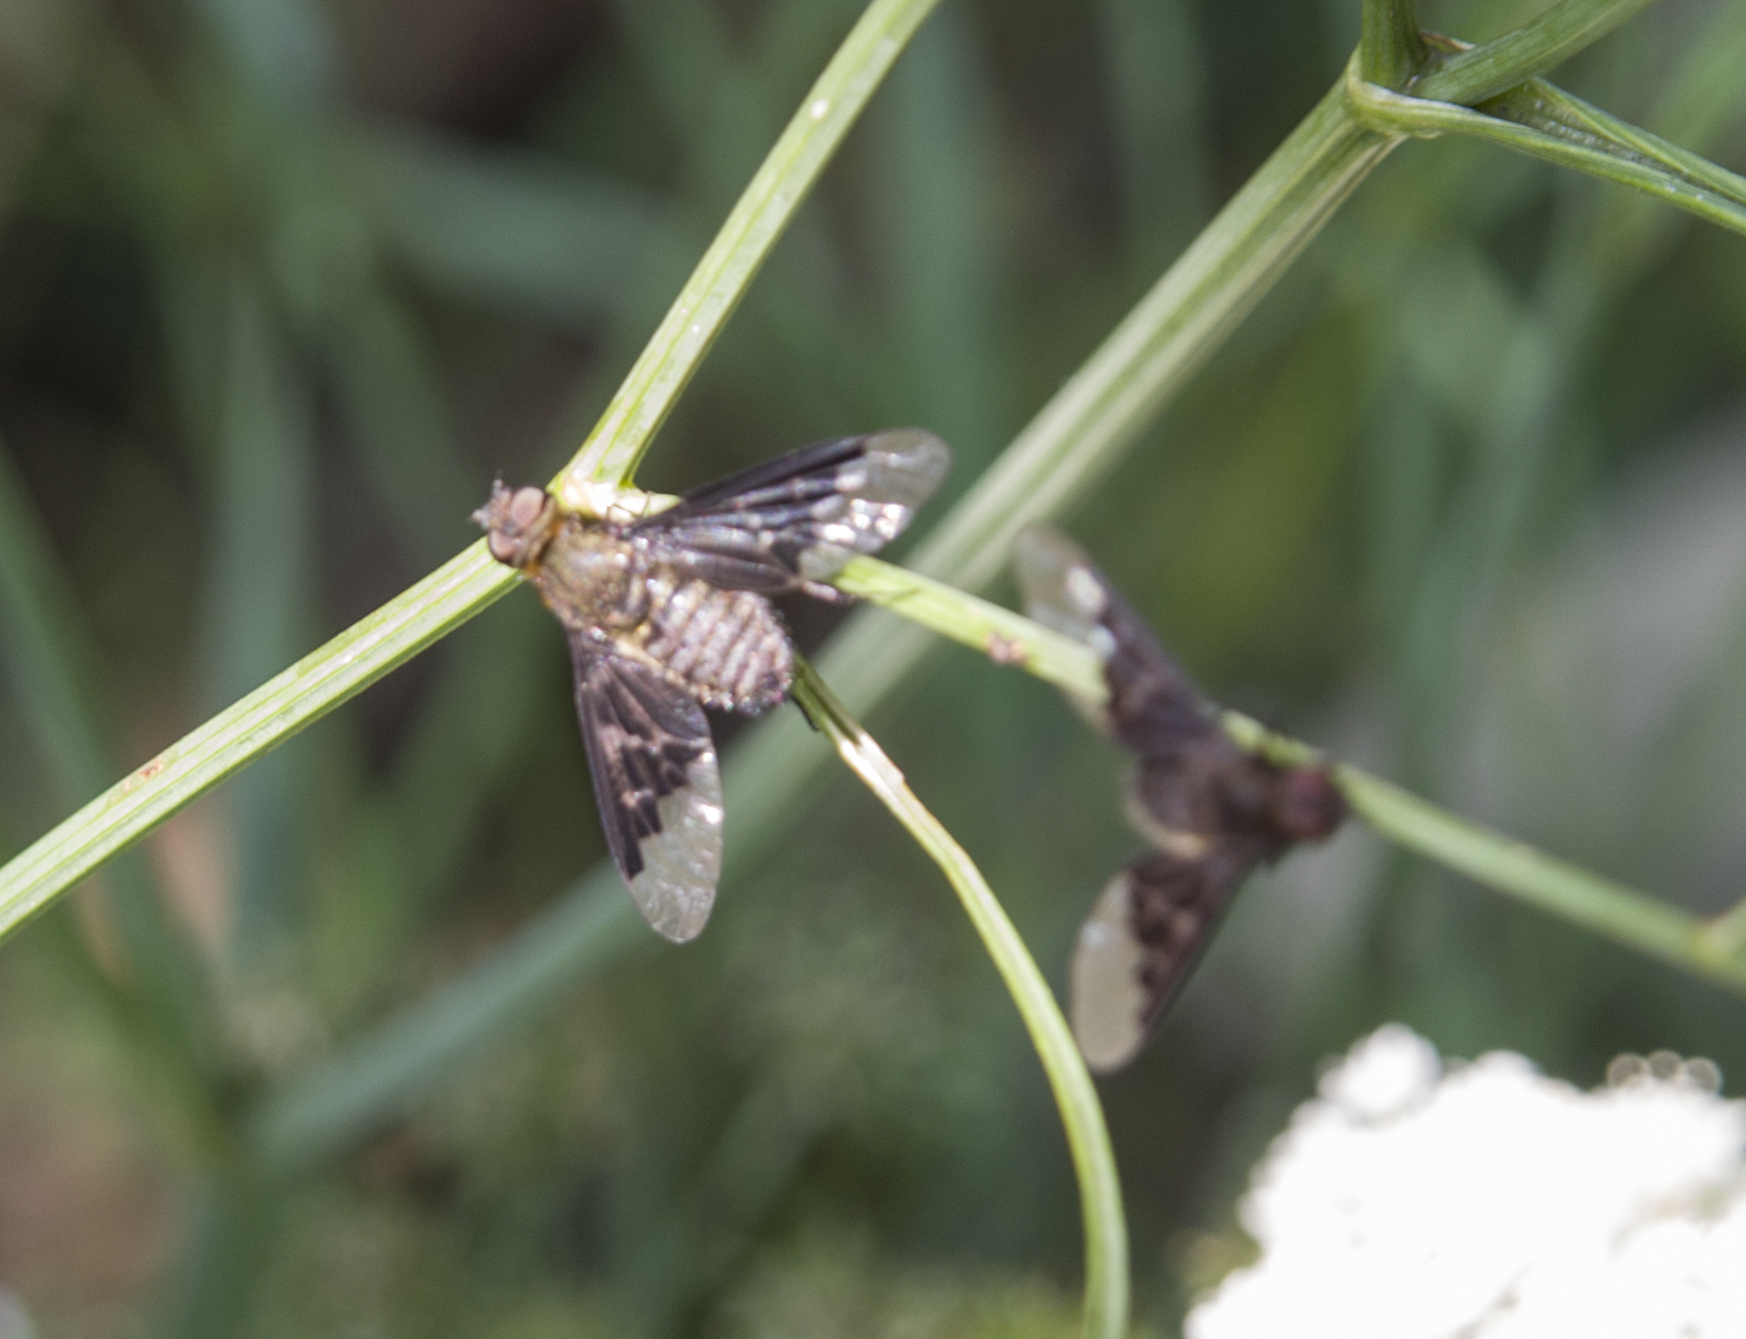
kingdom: Animalia
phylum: Arthropoda
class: Insecta
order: Diptera
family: Bombyliidae
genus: Hemipenthes
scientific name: Hemipenthes morio
